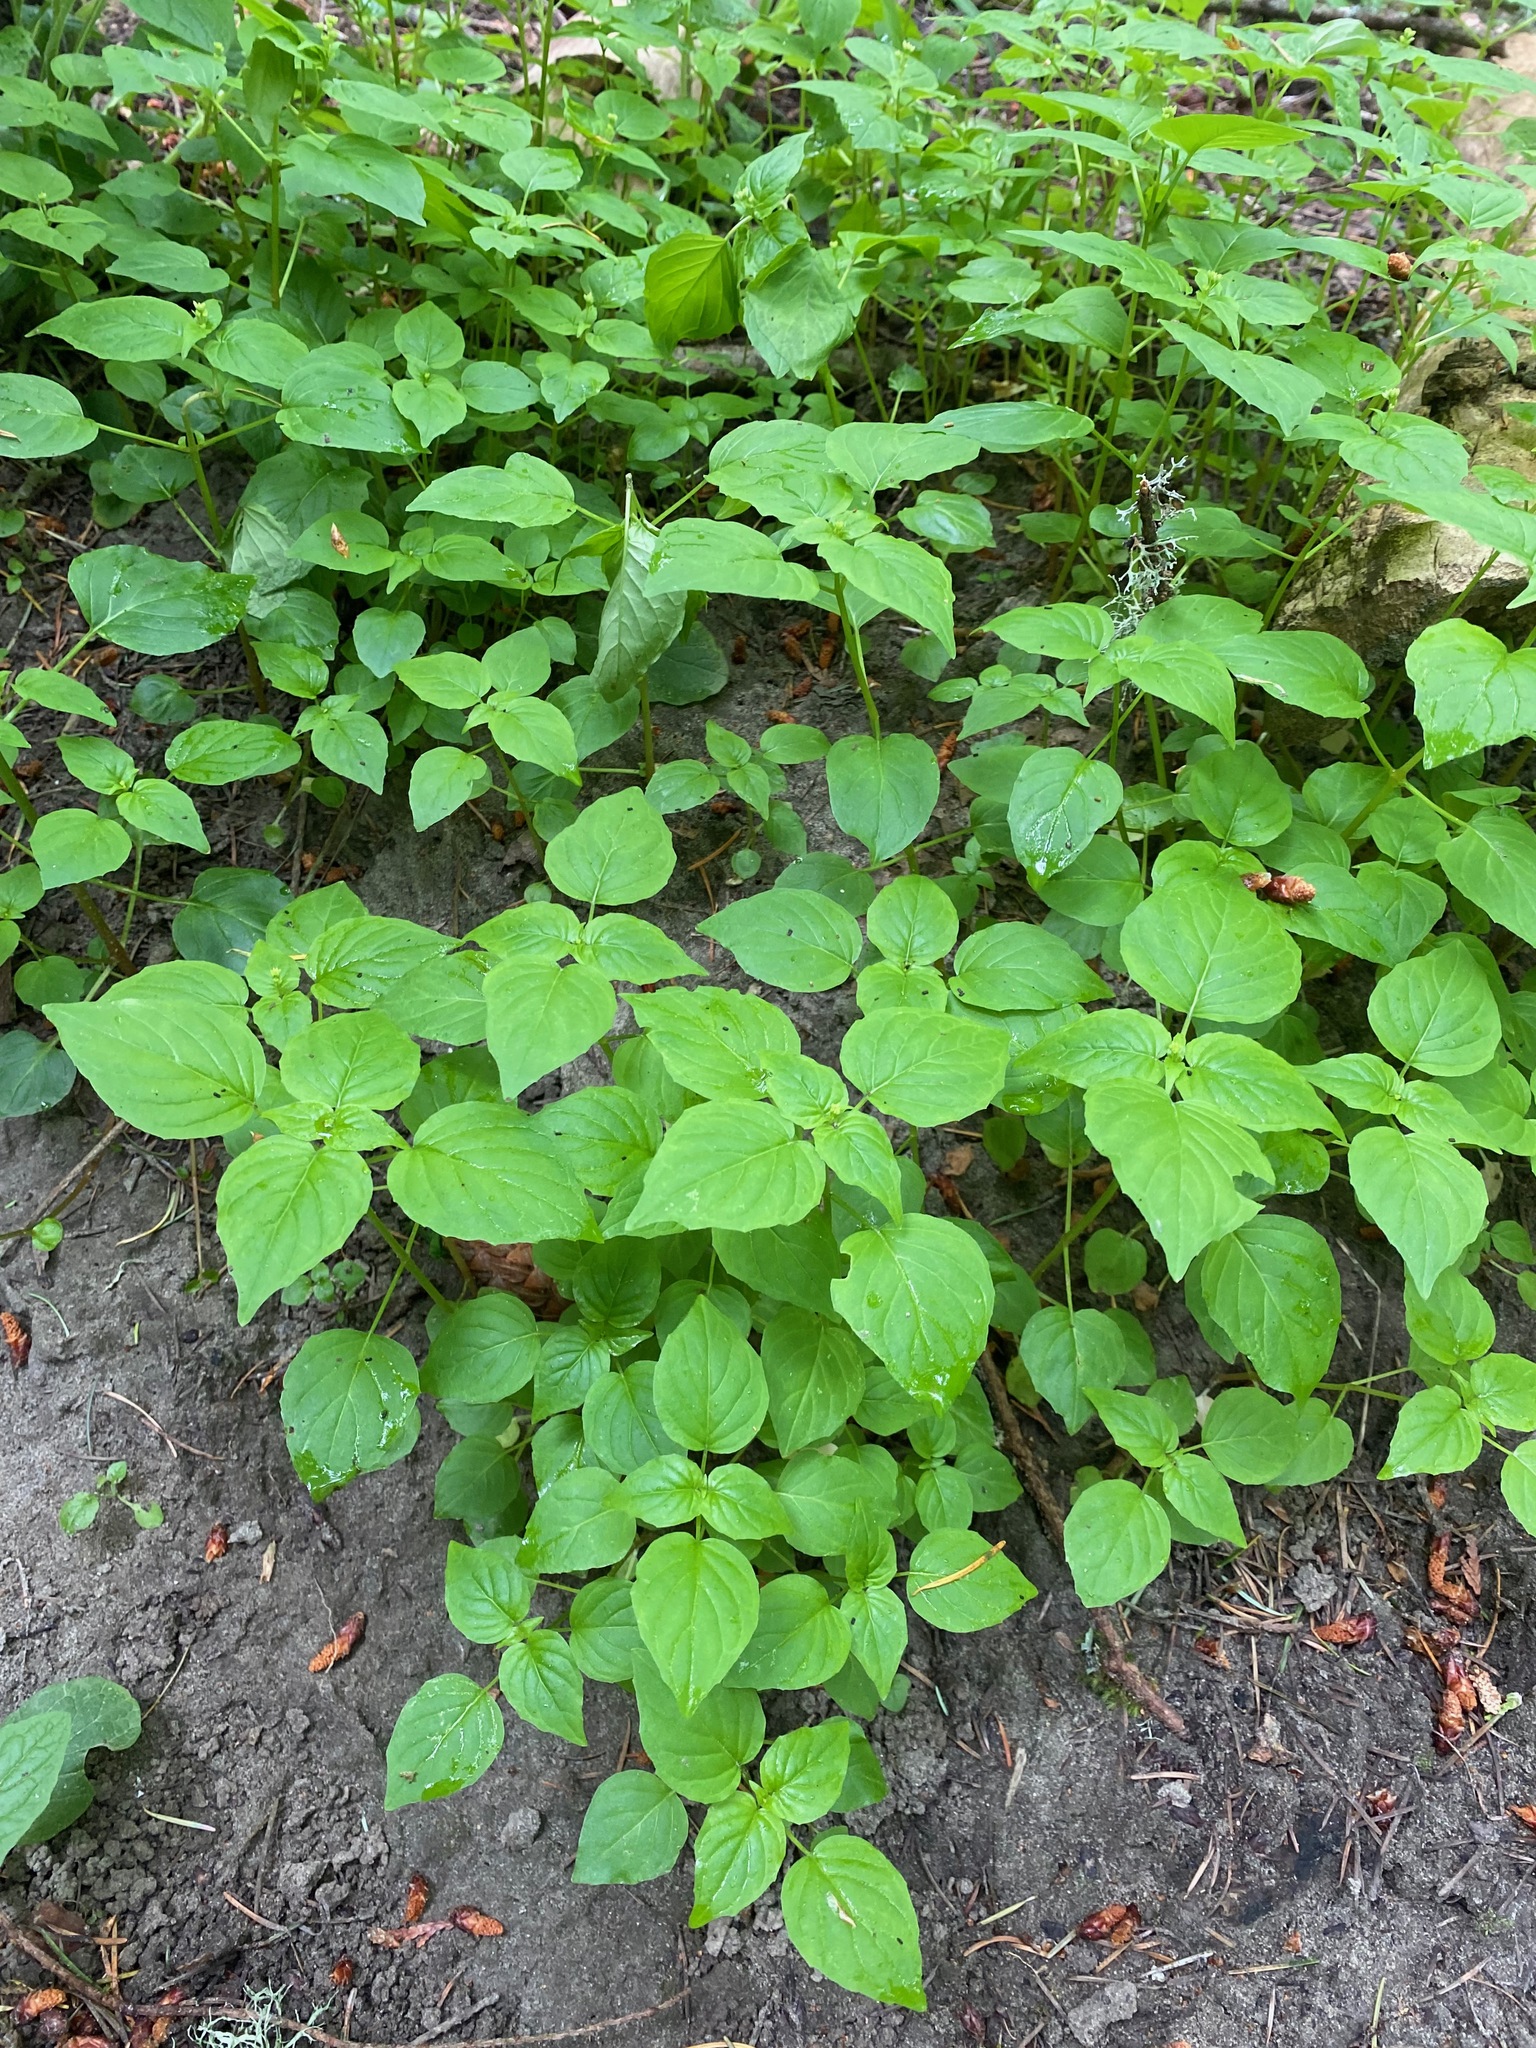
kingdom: Plantae
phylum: Tracheophyta
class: Magnoliopsida
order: Myrtales
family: Onagraceae
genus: Circaea
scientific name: Circaea alpina
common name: Alpine enchanter's-nightshade
